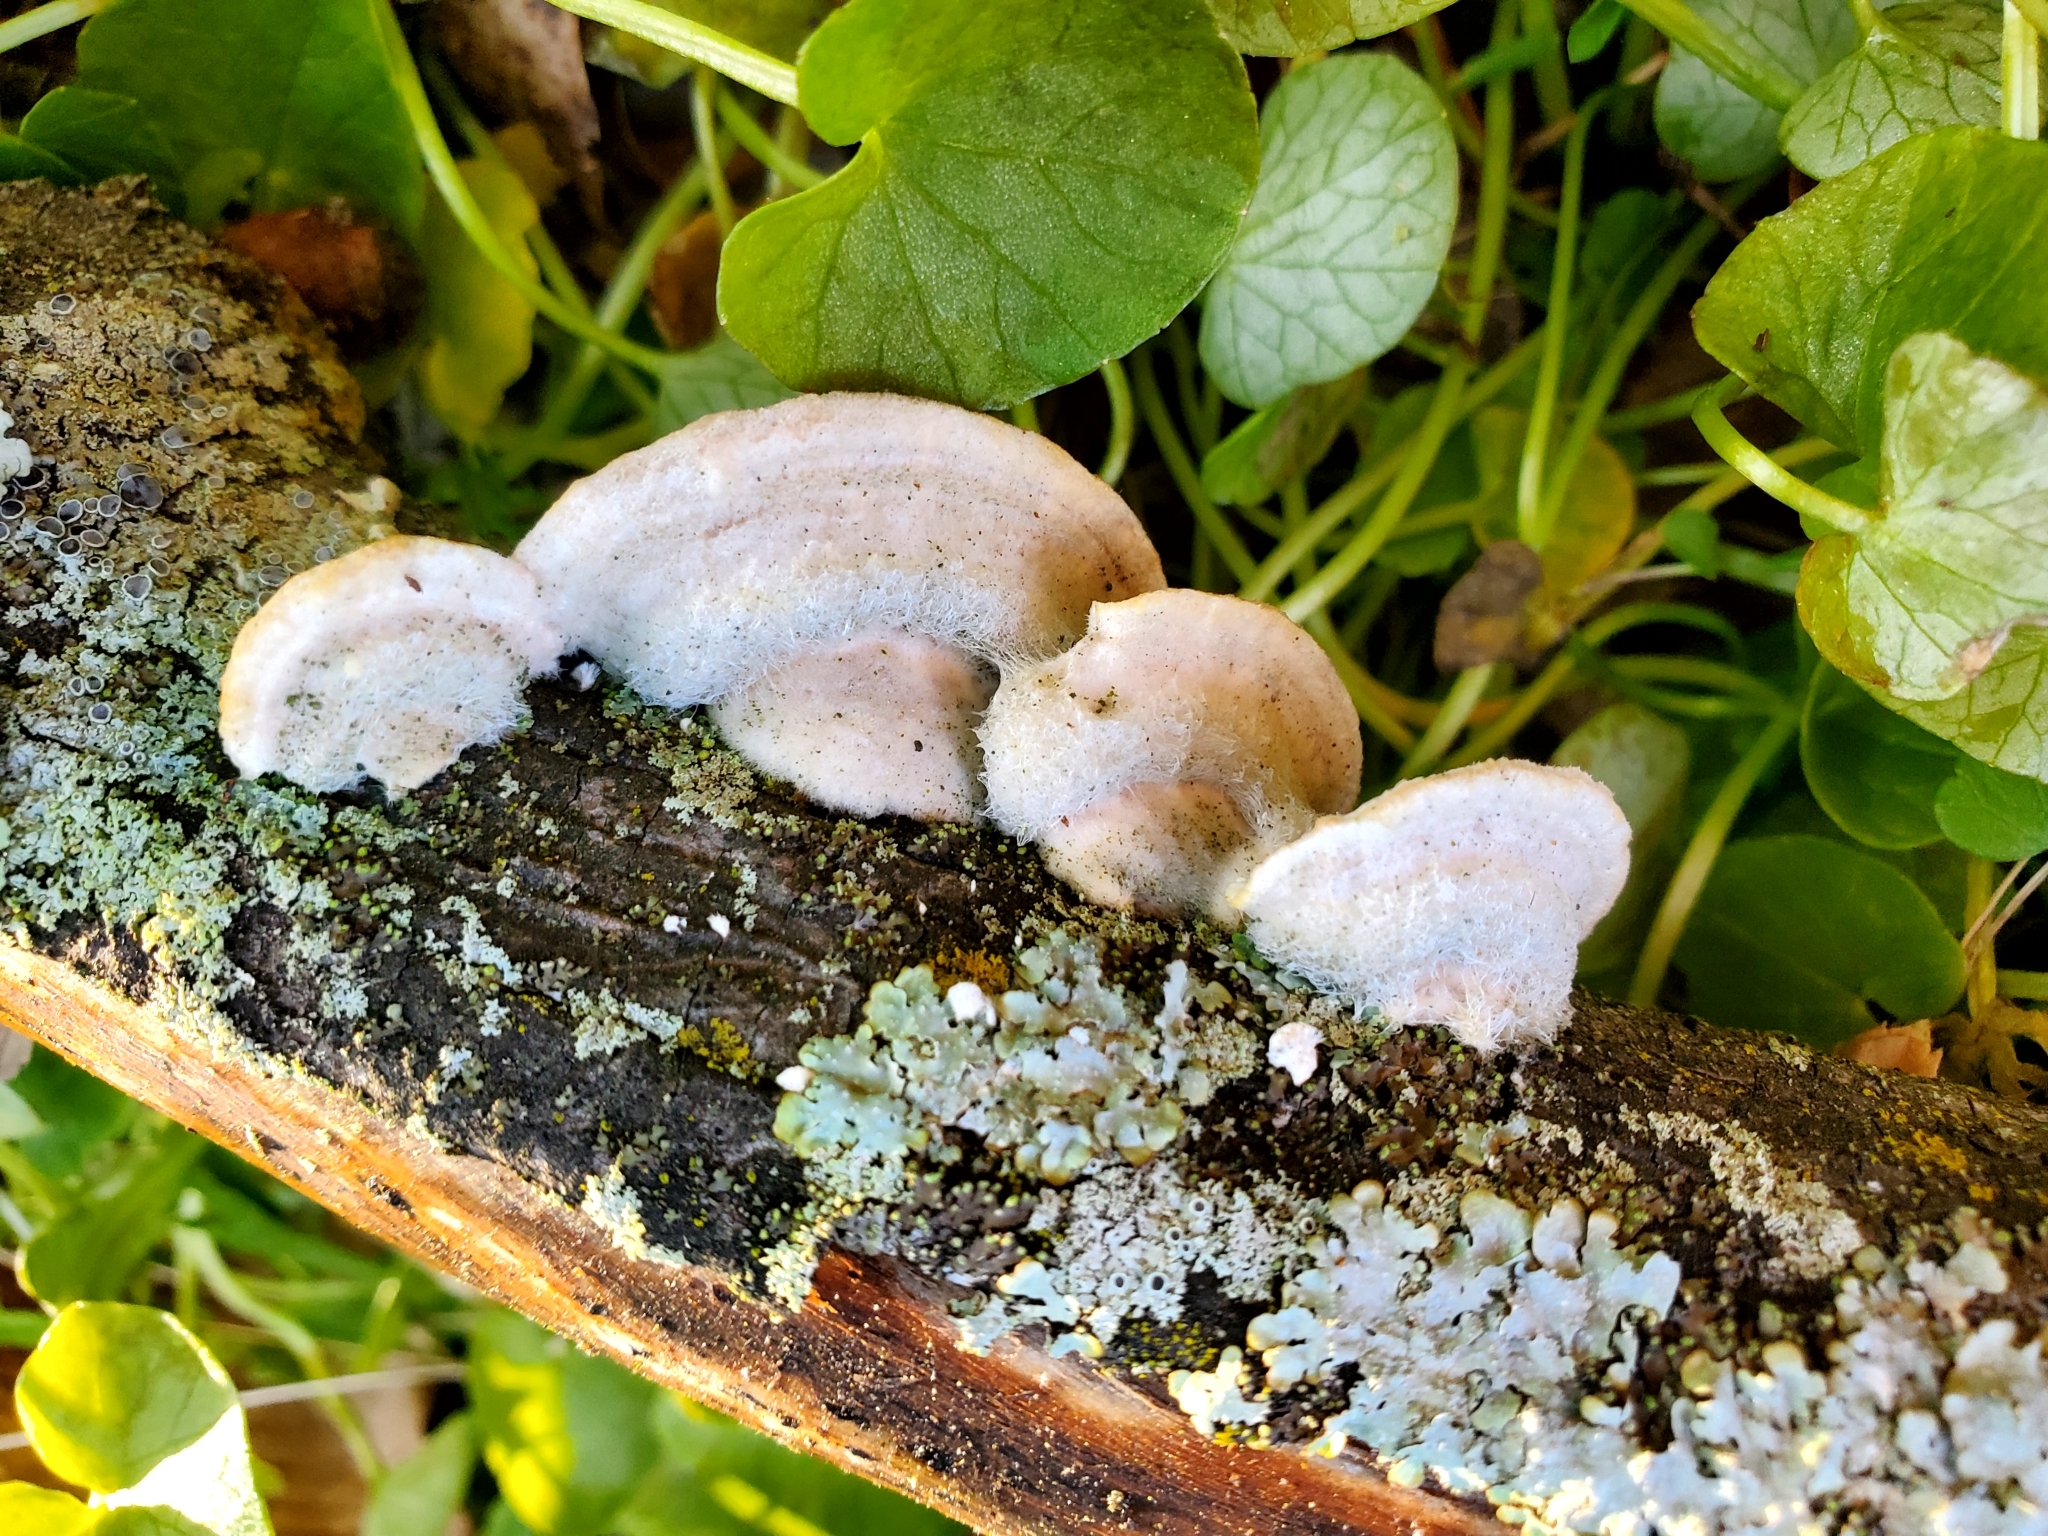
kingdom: Fungi
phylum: Basidiomycota
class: Agaricomycetes
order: Polyporales
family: Polyporaceae
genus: Trametes
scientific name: Trametes hirsuta
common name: Hairy bracket
